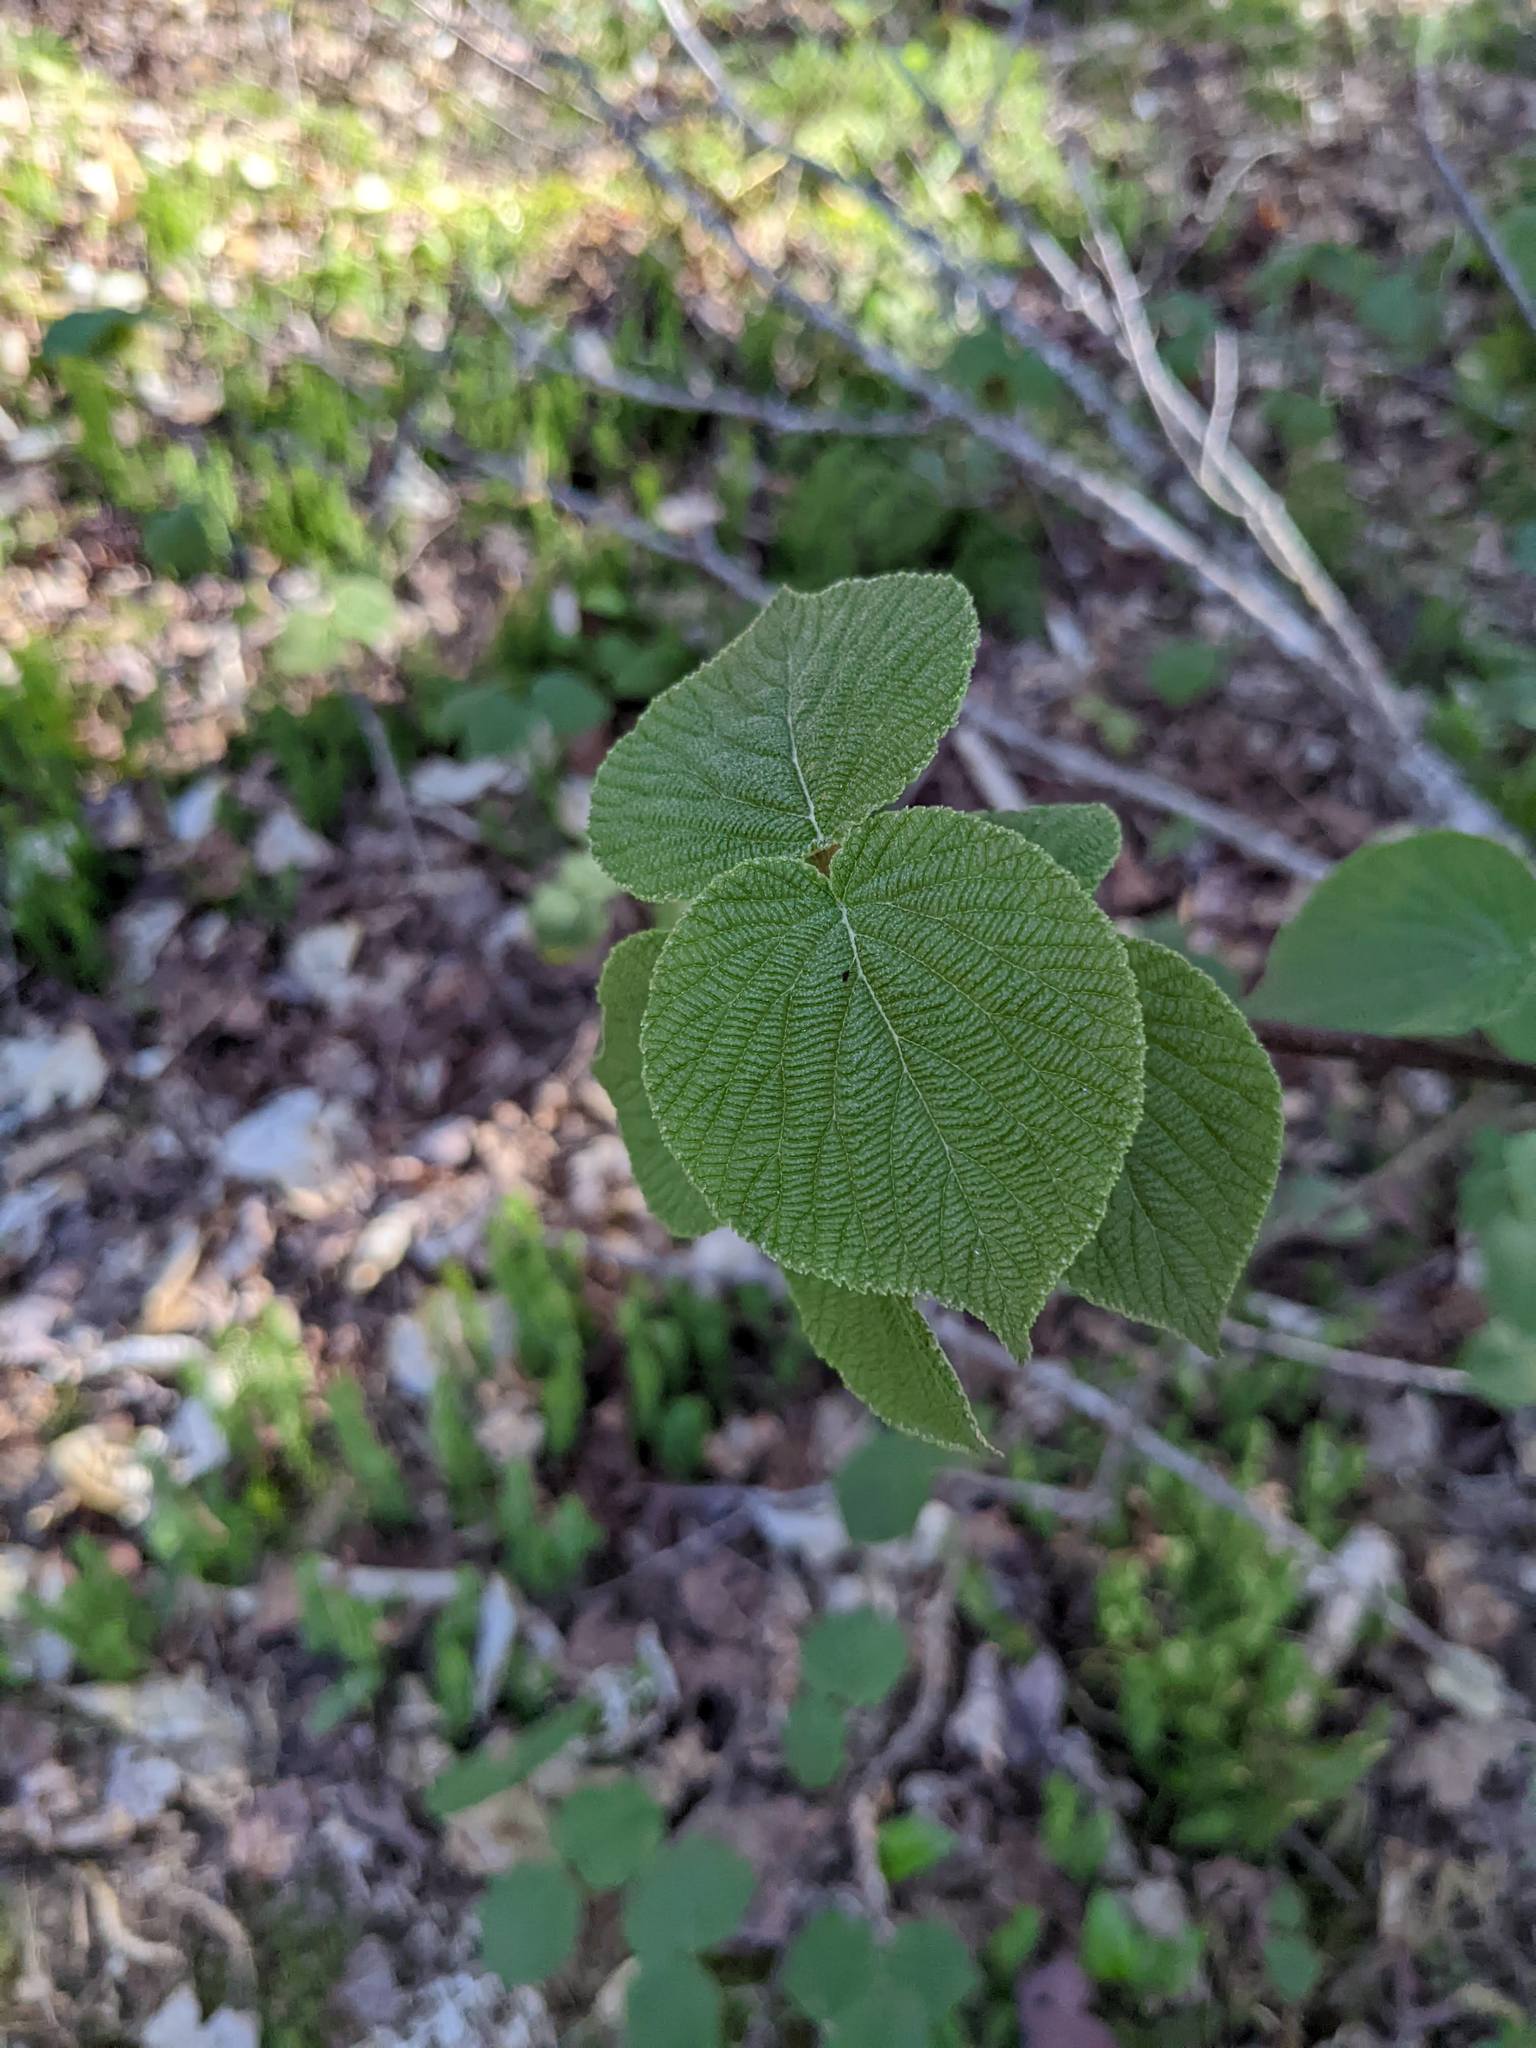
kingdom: Plantae
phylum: Tracheophyta
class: Magnoliopsida
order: Dipsacales
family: Viburnaceae
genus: Viburnum
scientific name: Viburnum lantanoides
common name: Hobblebush
